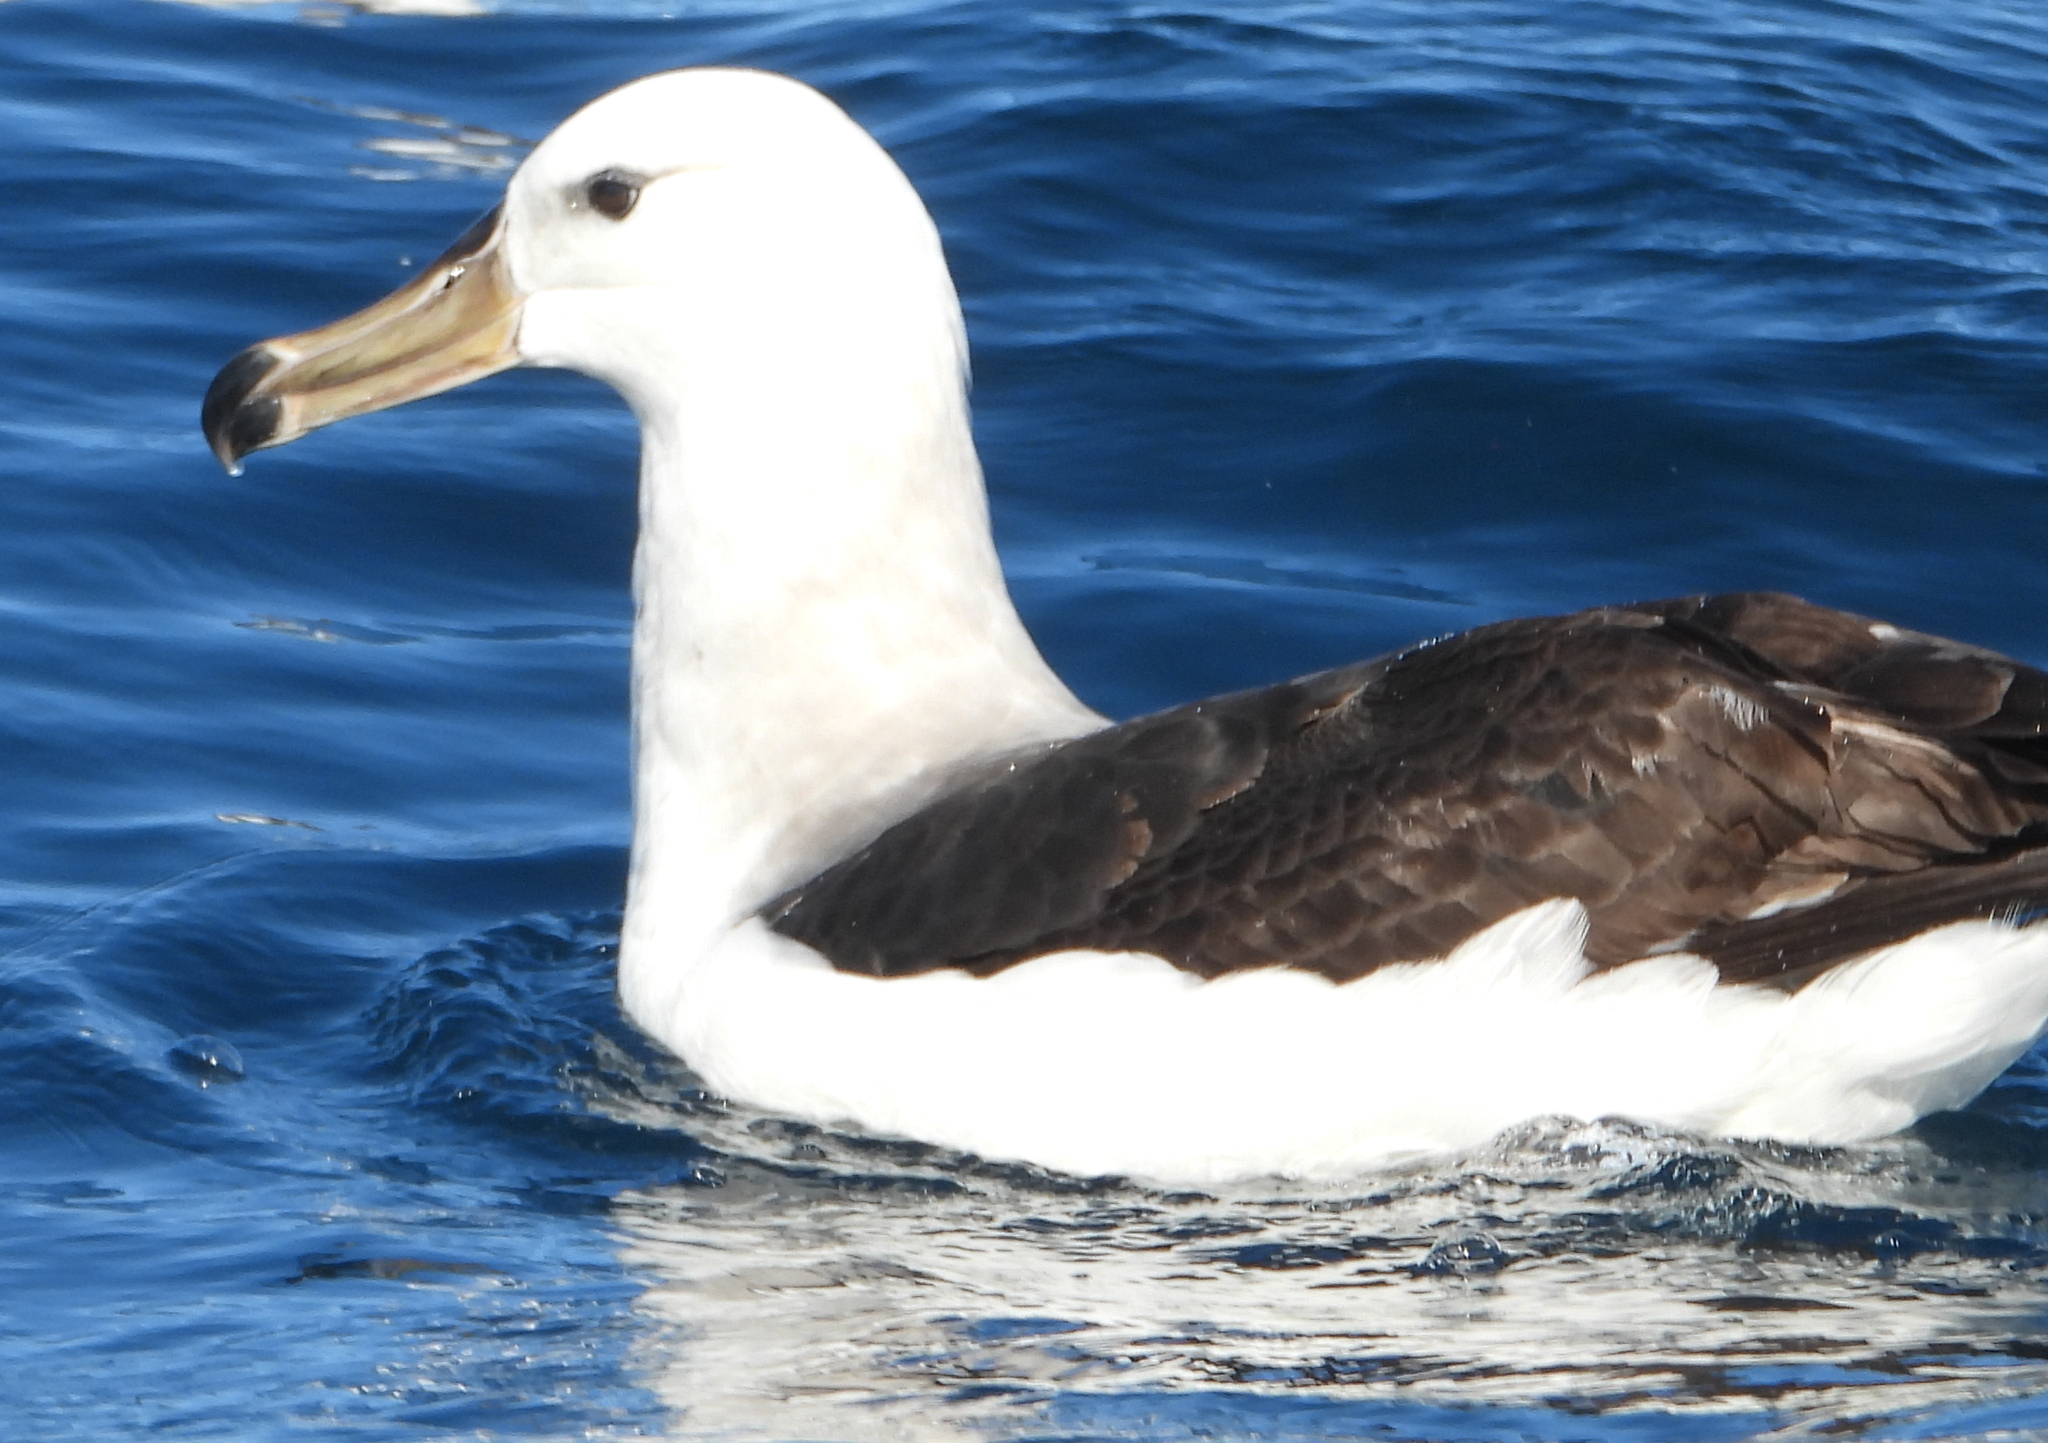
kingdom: Animalia
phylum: Chordata
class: Aves
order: Procellariiformes
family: Diomedeidae
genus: Thalassarche
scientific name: Thalassarche melanophris
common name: Black-browed albatross
